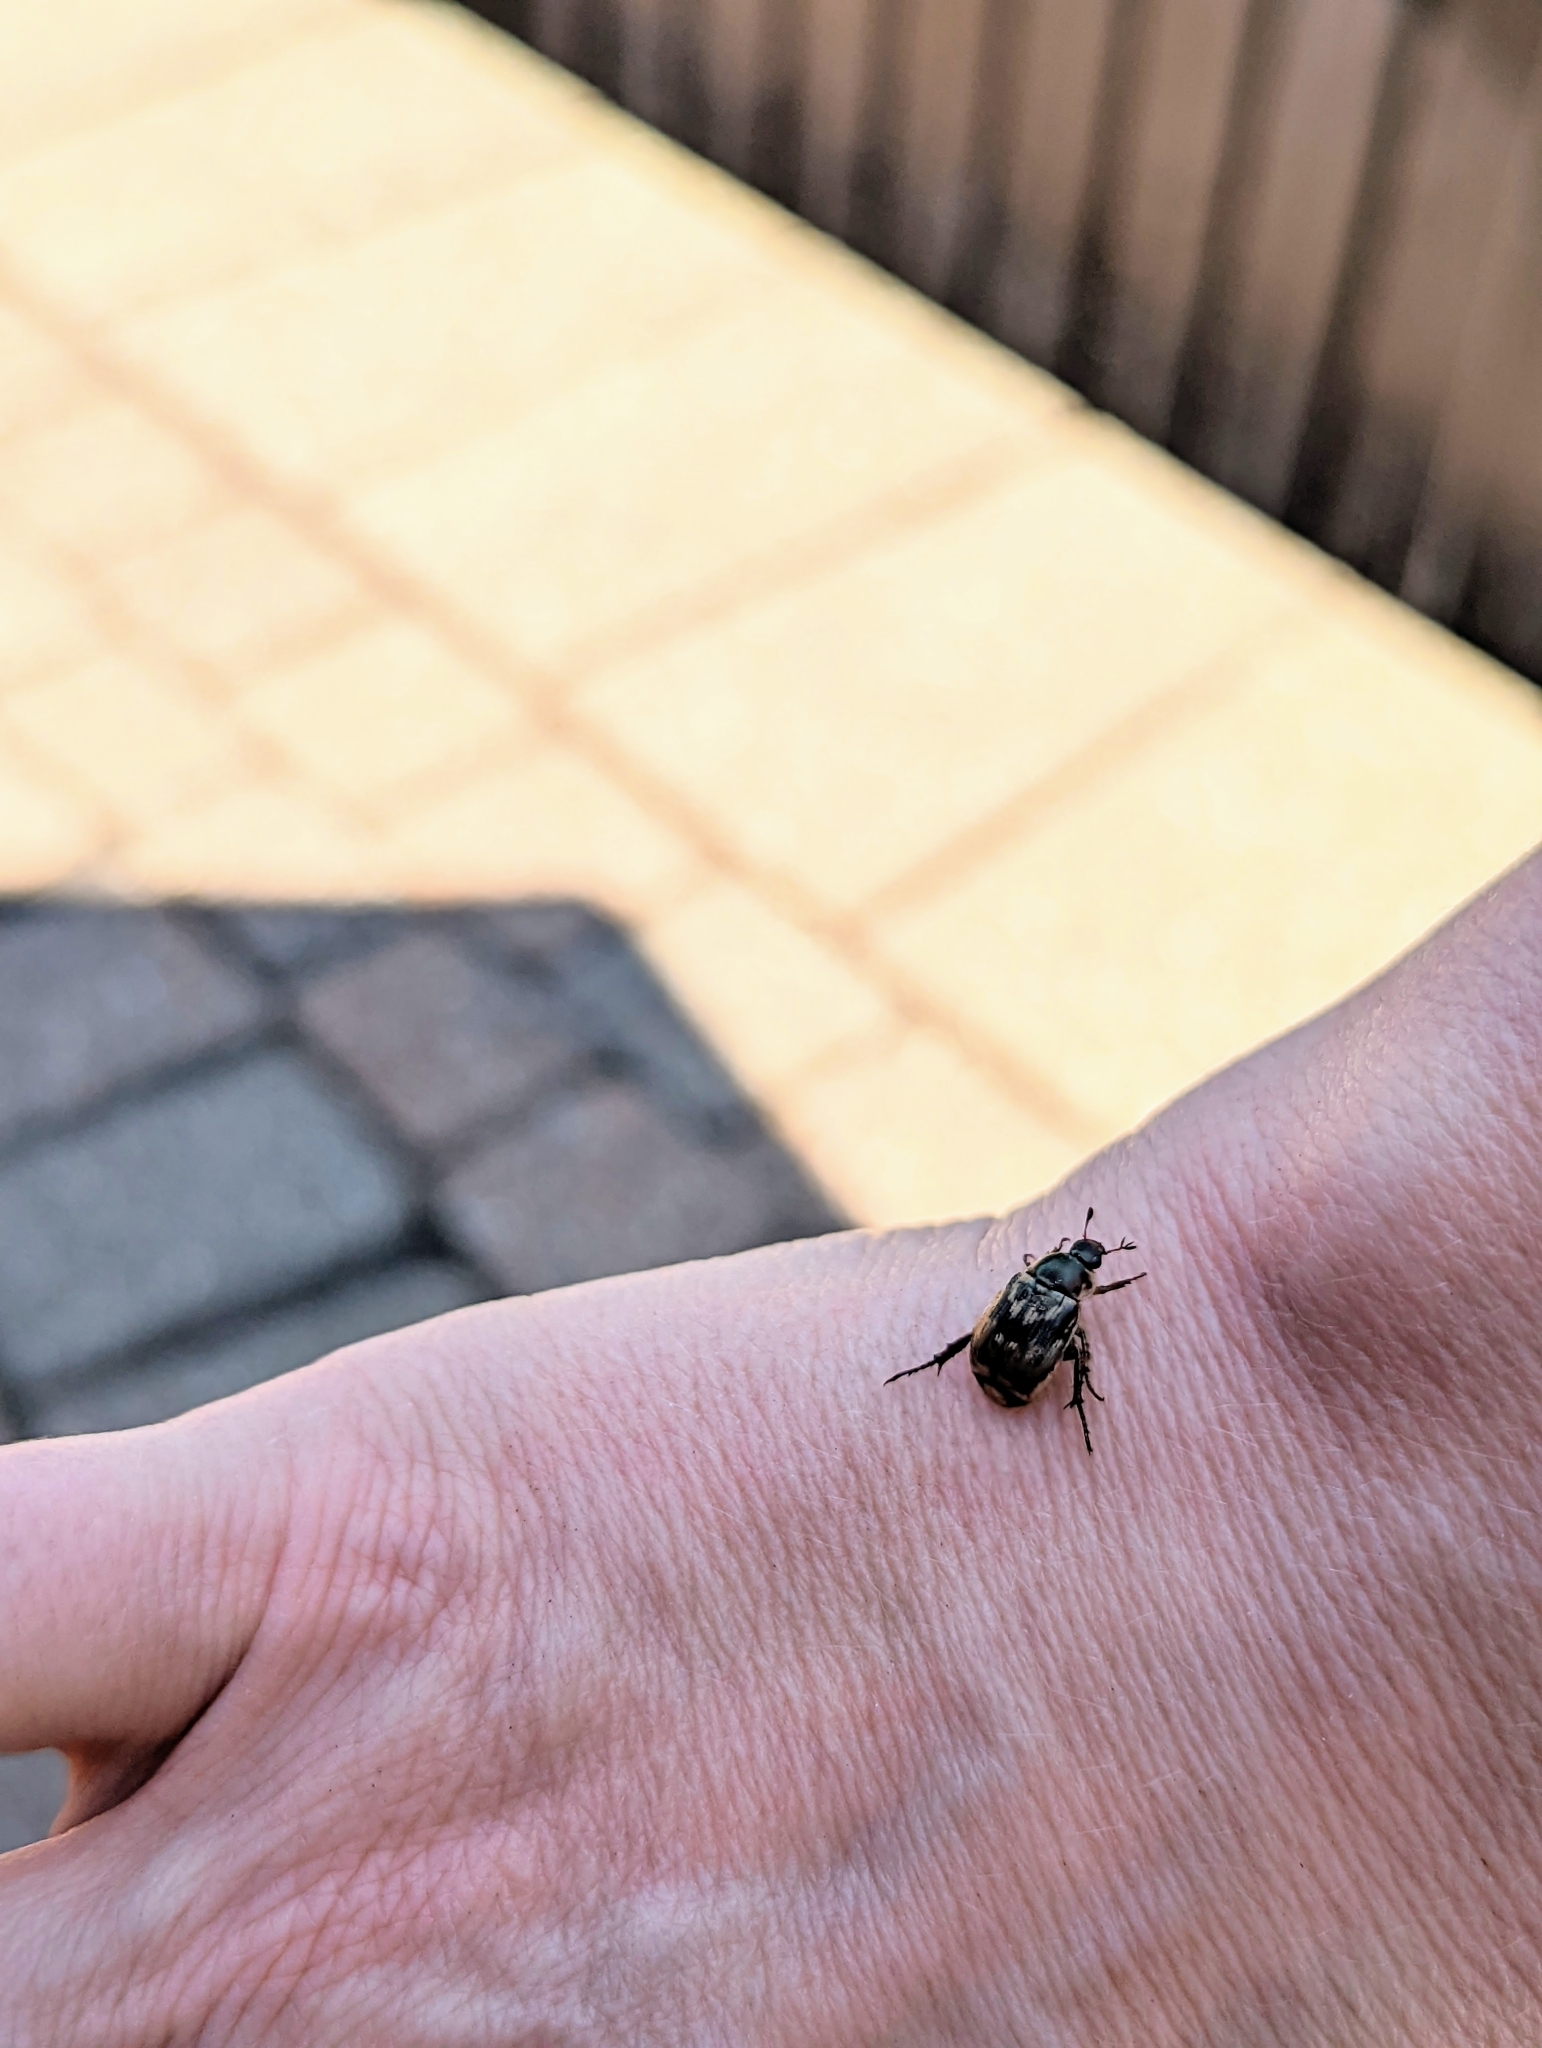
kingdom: Animalia
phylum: Arthropoda
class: Insecta
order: Coleoptera
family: Scarabaeidae
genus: Exomala
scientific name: Exomala orientalis
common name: Oriental beetle
